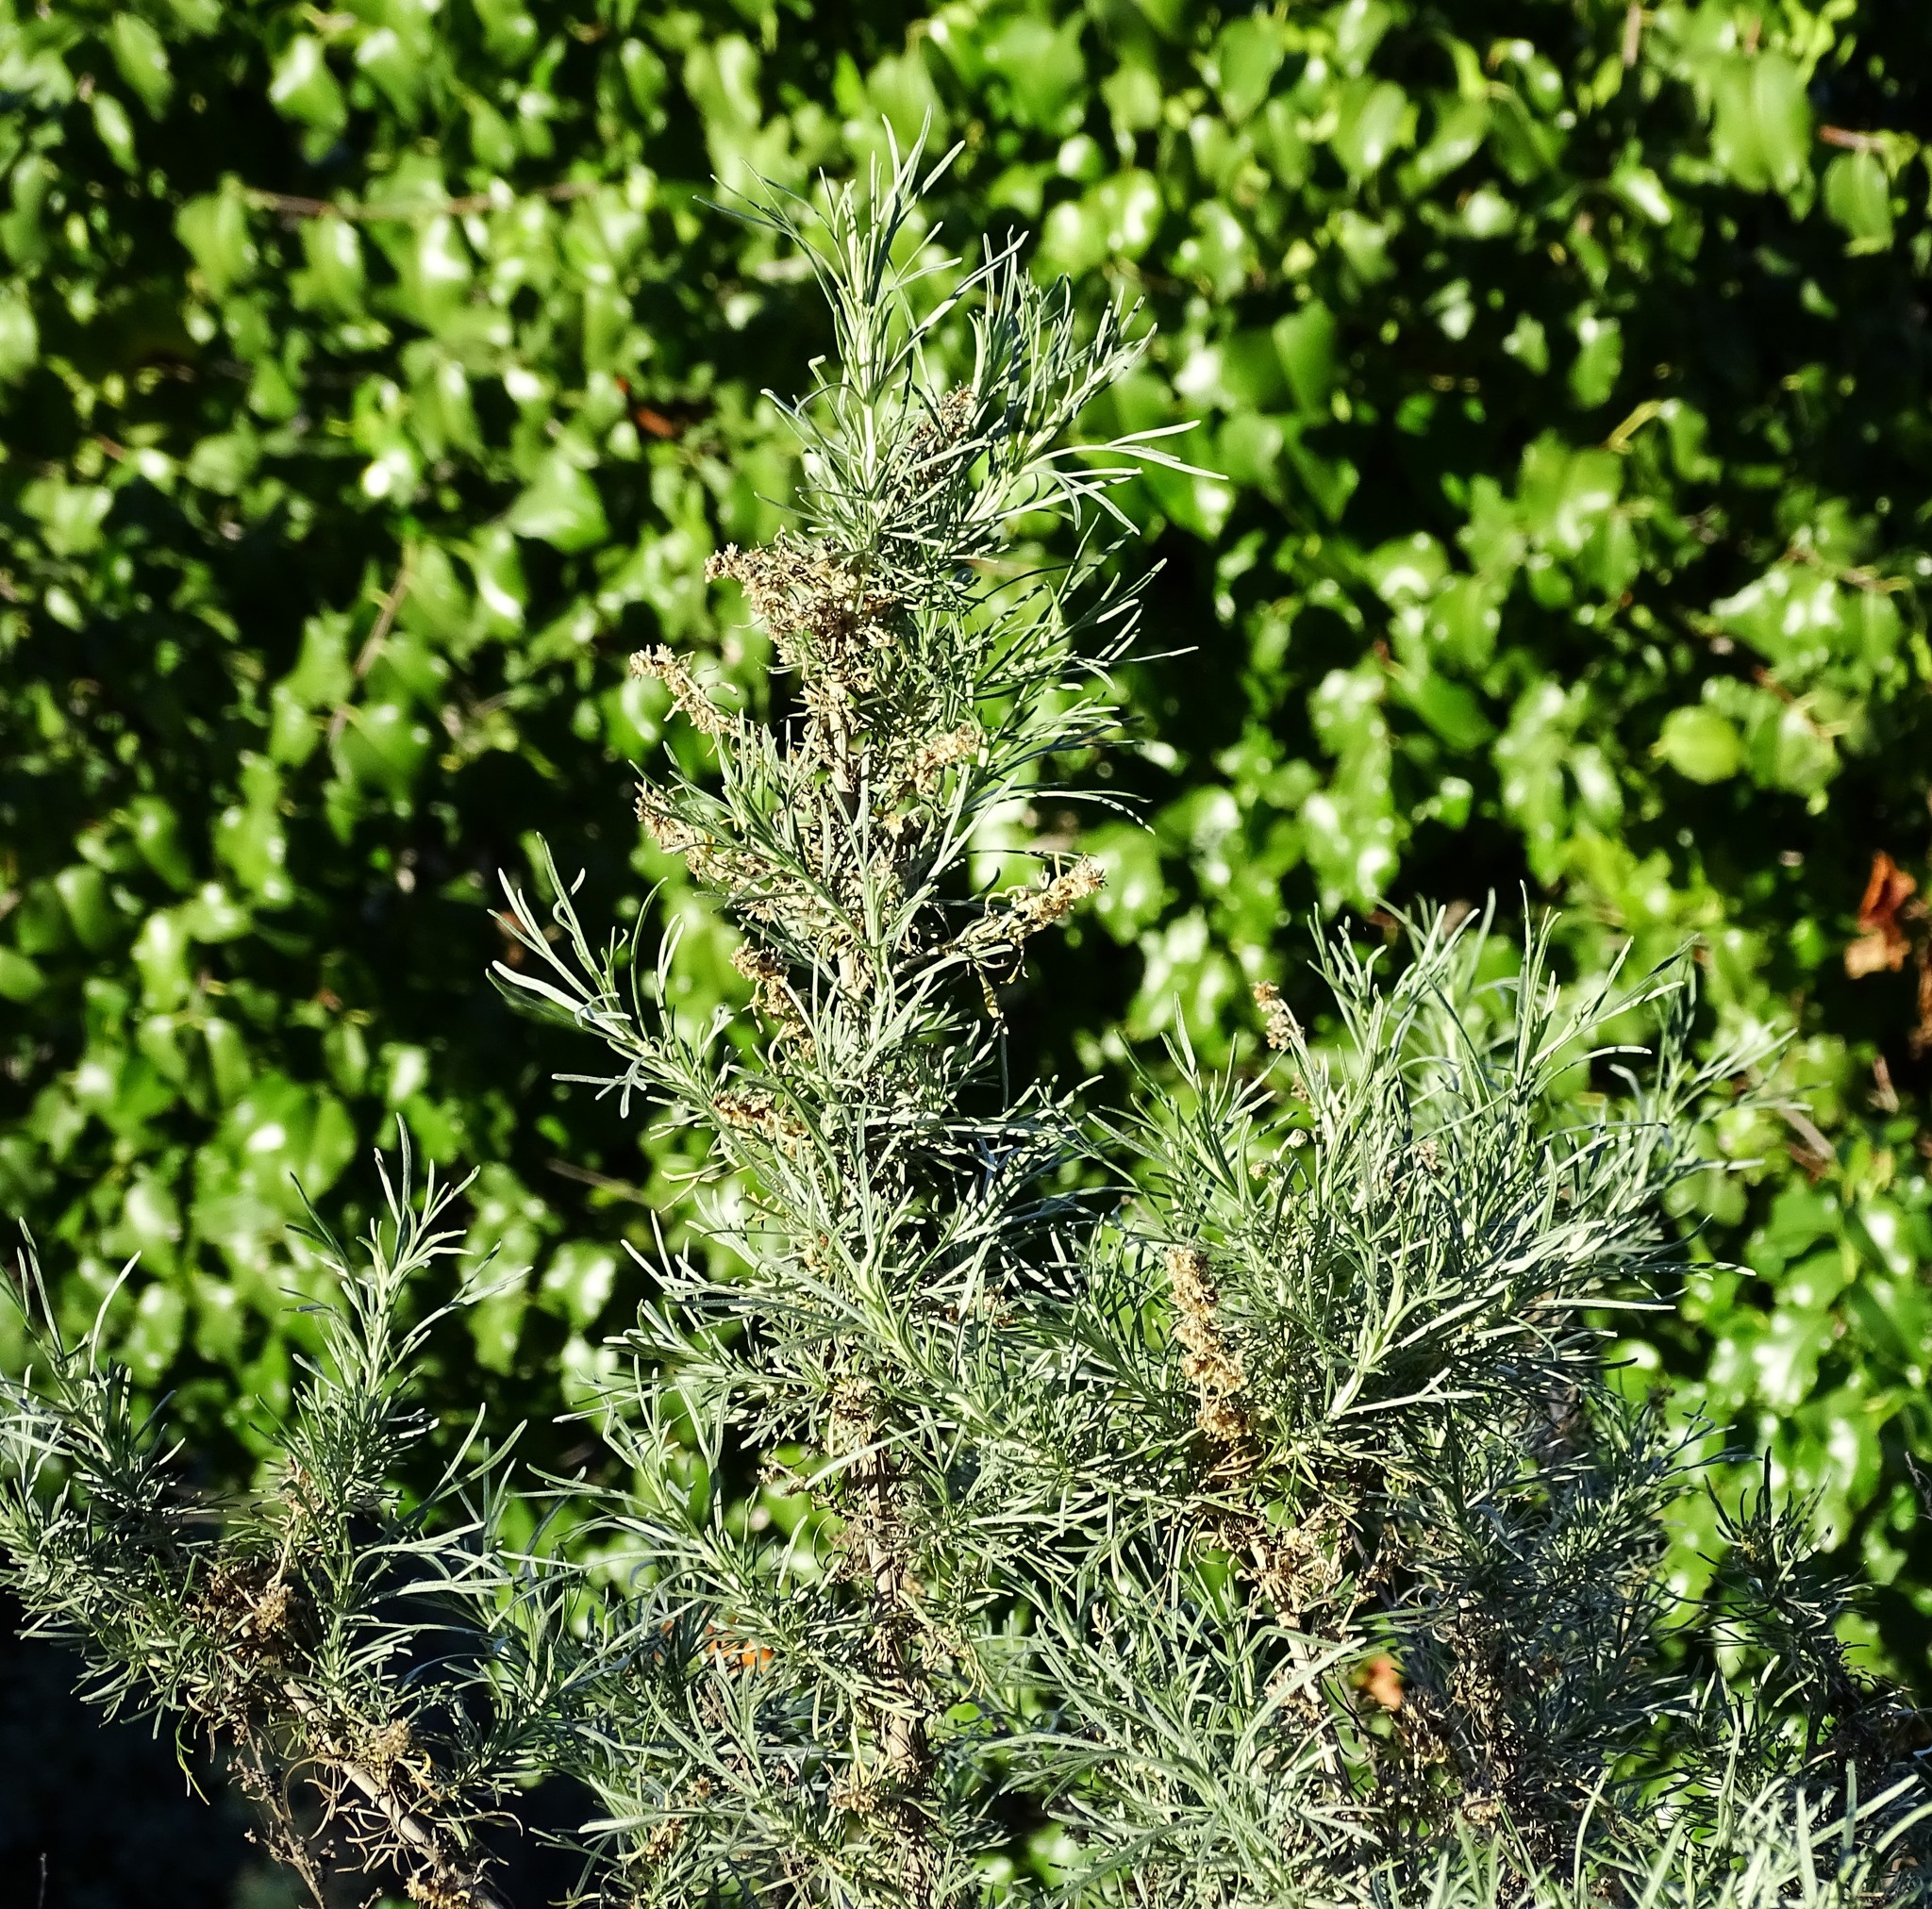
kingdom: Plantae
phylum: Tracheophyta
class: Magnoliopsida
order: Asterales
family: Asteraceae
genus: Artemisia
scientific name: Artemisia californica
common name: California sagebrush
